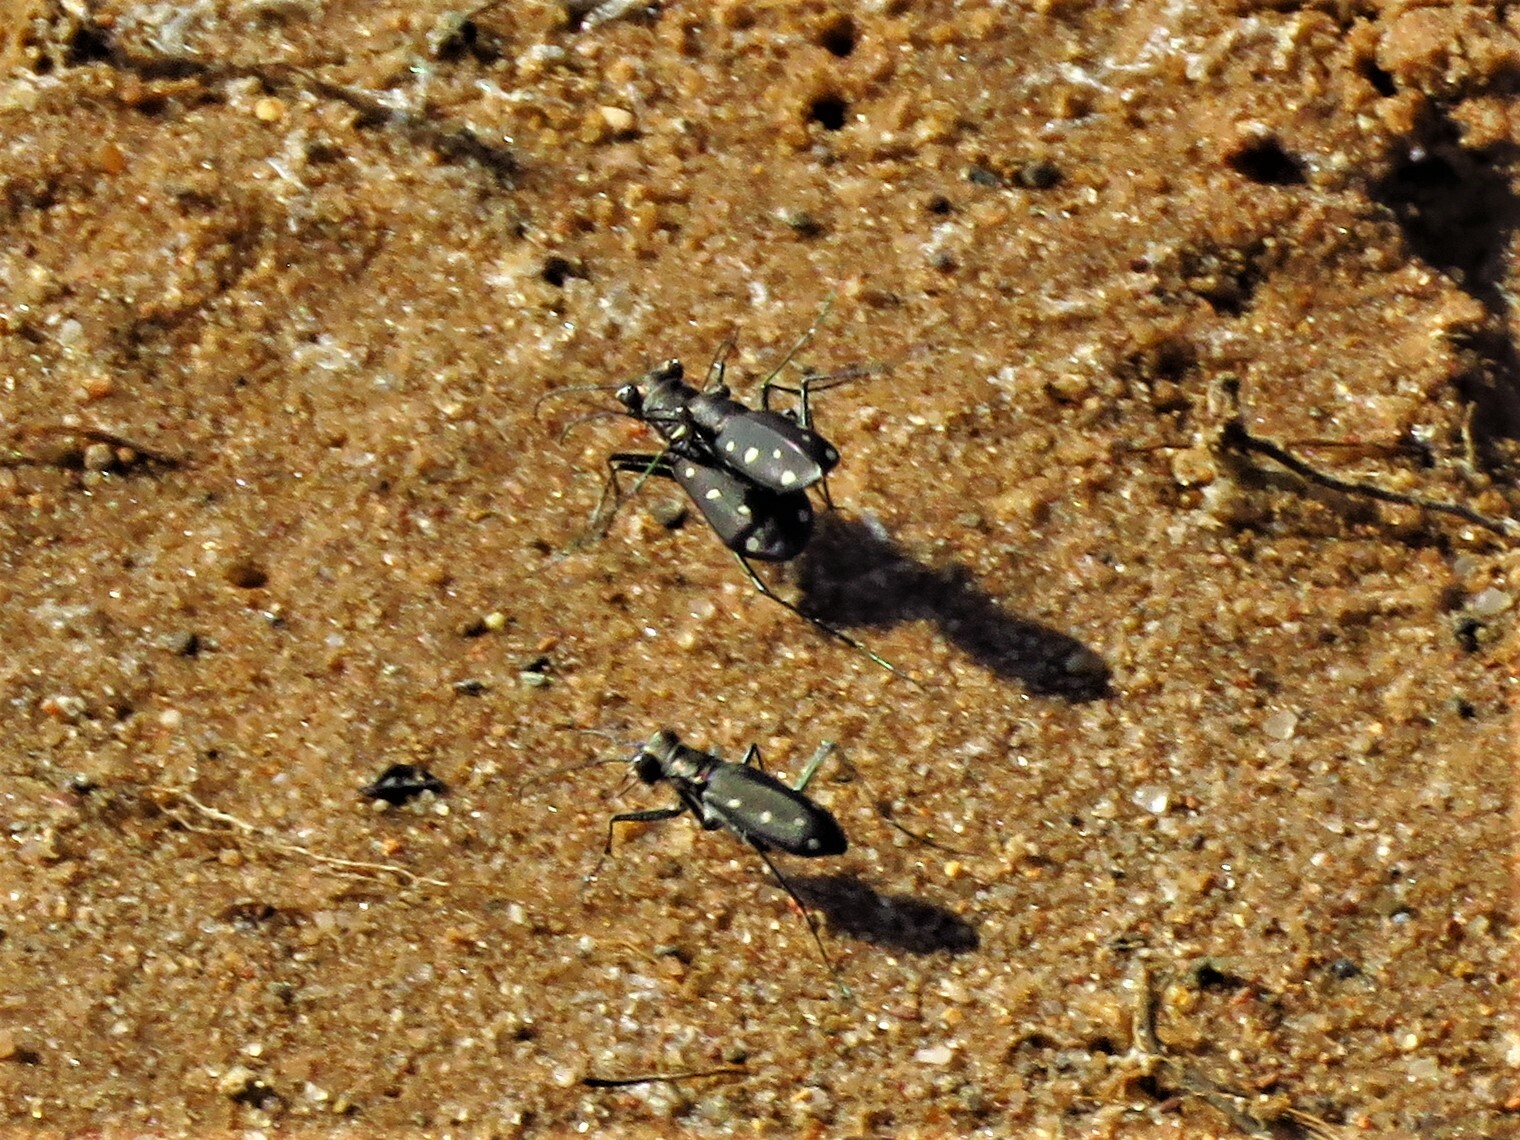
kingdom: Animalia
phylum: Arthropoda
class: Insecta
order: Coleoptera
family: Carabidae
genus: Cicindela
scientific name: Cicindela ocellata
